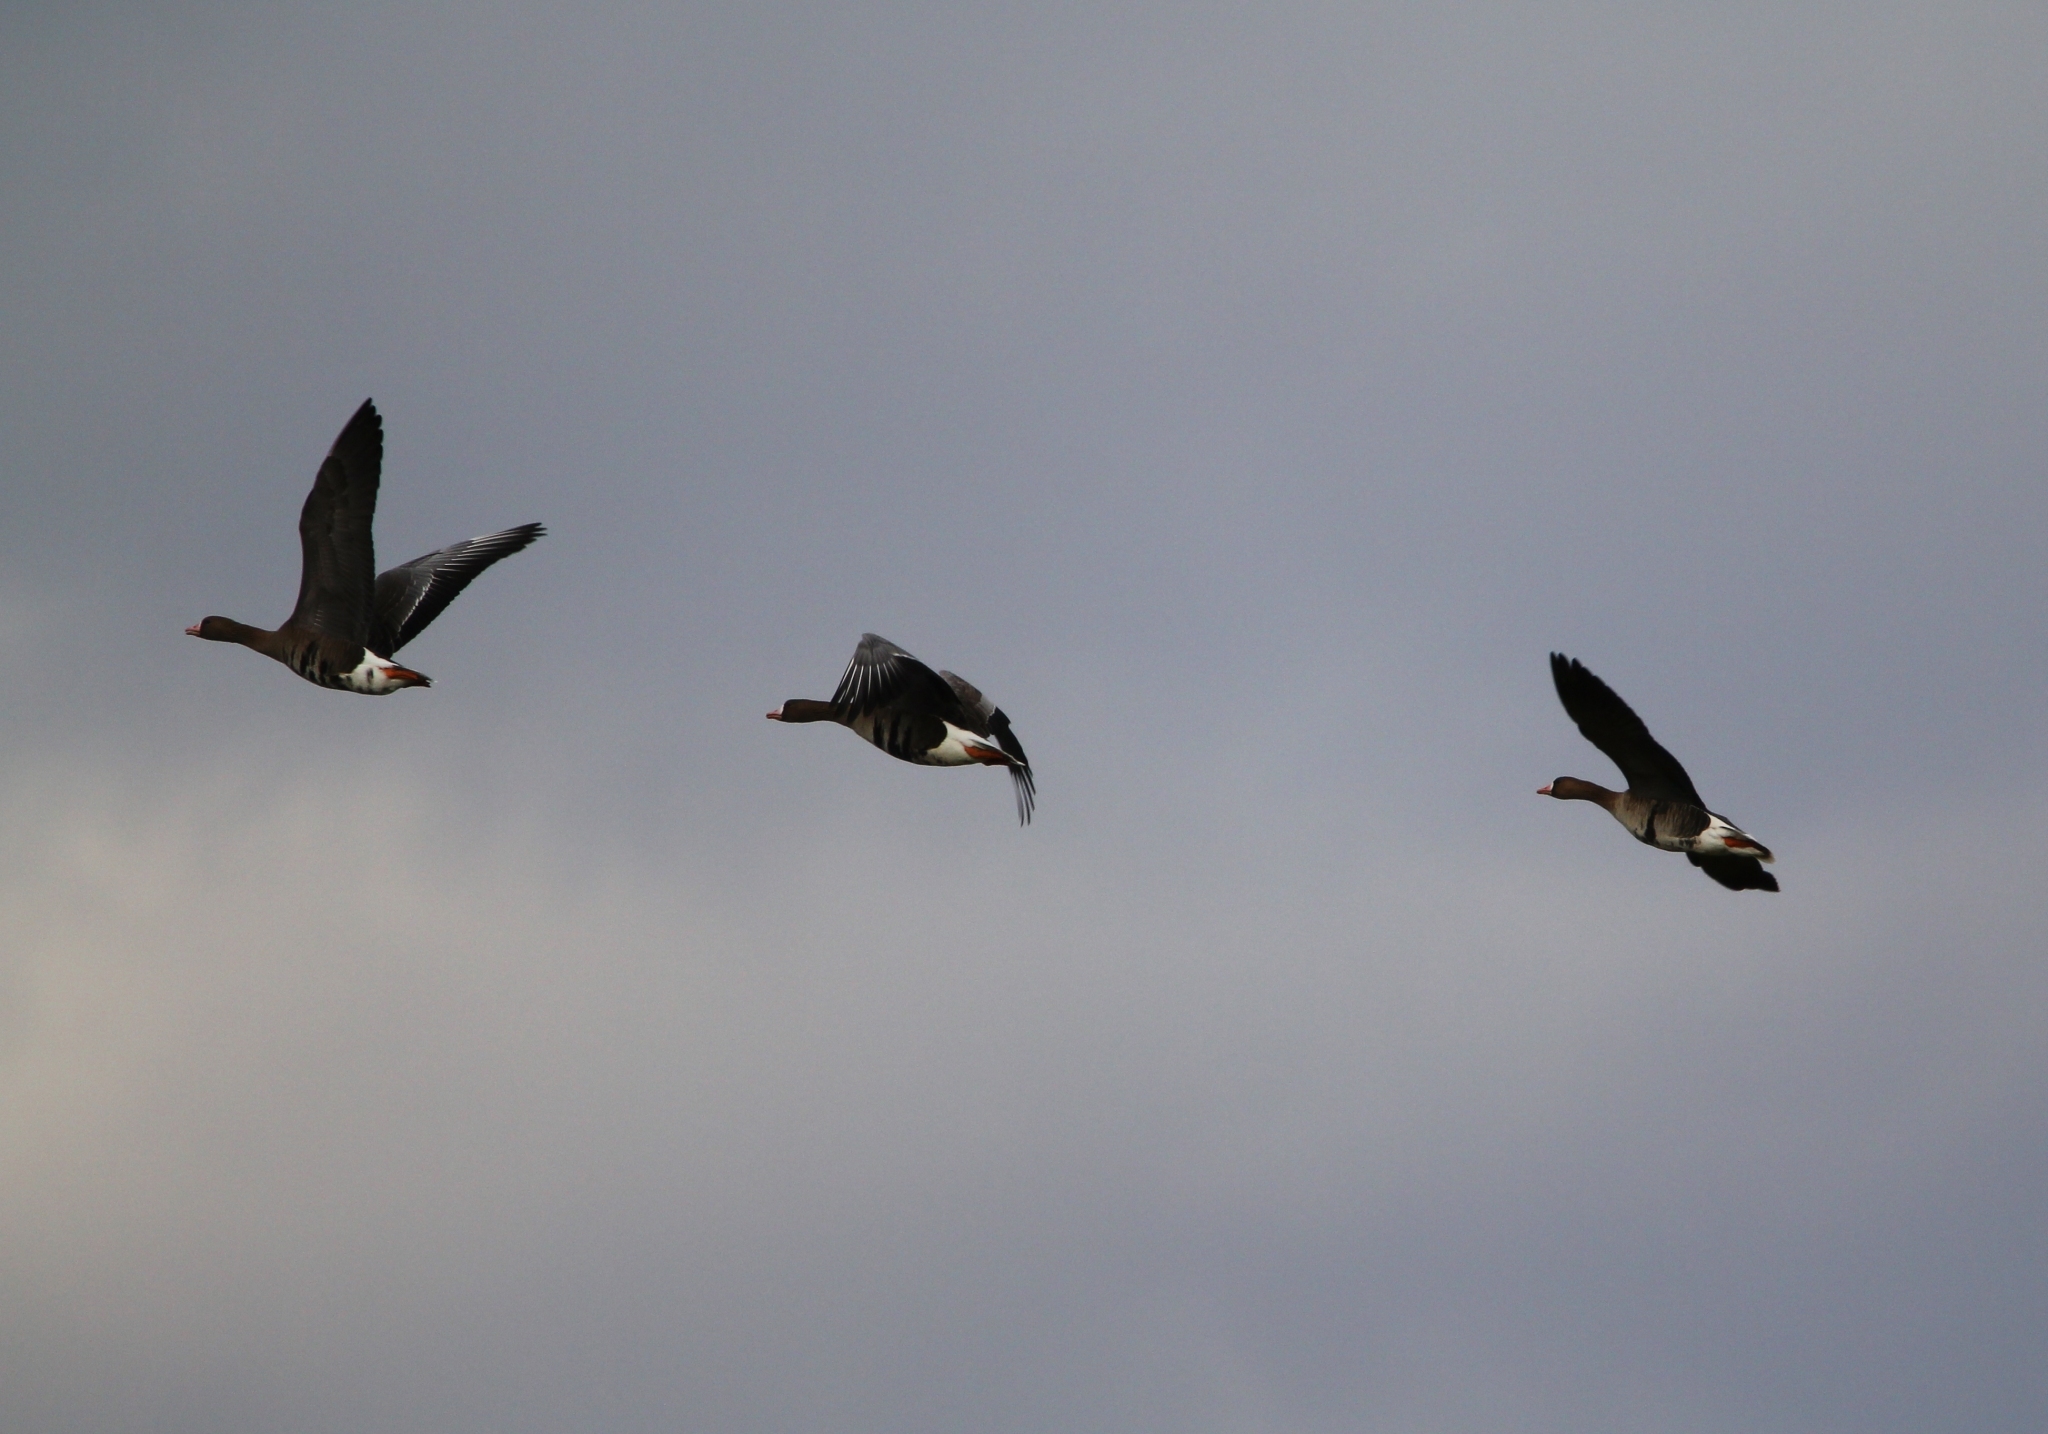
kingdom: Animalia
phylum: Chordata
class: Aves
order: Anseriformes
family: Anatidae
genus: Anser
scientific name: Anser albifrons
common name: Greater white-fronted goose
